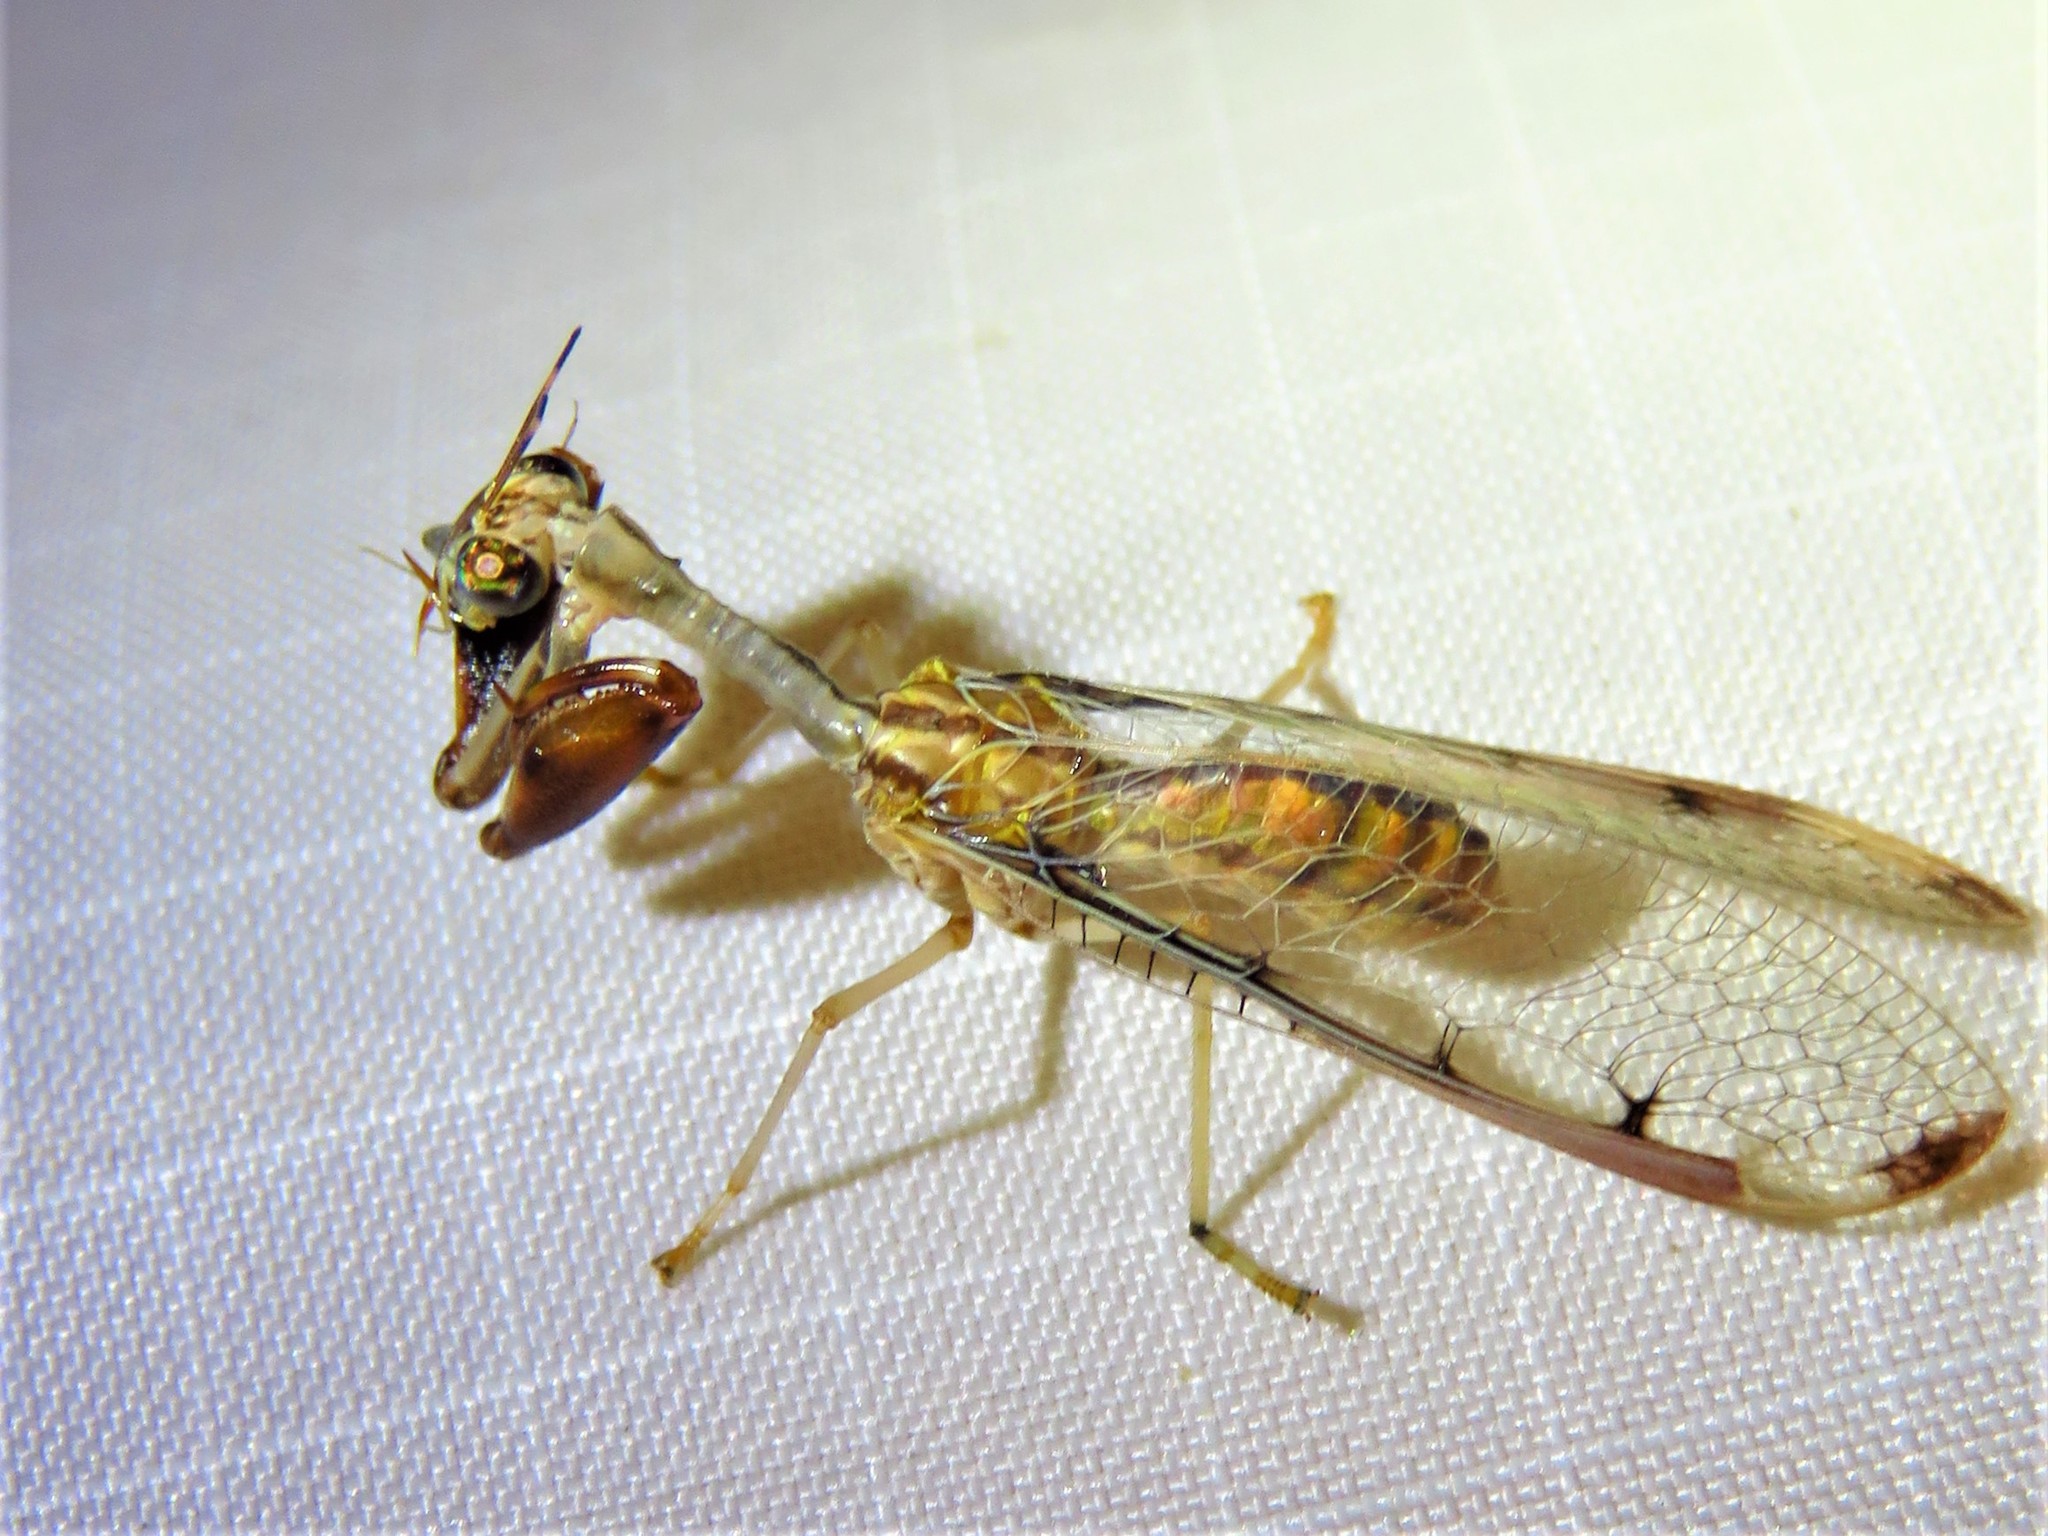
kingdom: Animalia
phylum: Arthropoda
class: Insecta
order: Neuroptera
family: Mantispidae
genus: Dicromantispa
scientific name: Dicromantispa interrupta
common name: Four-spotted mantidfly
